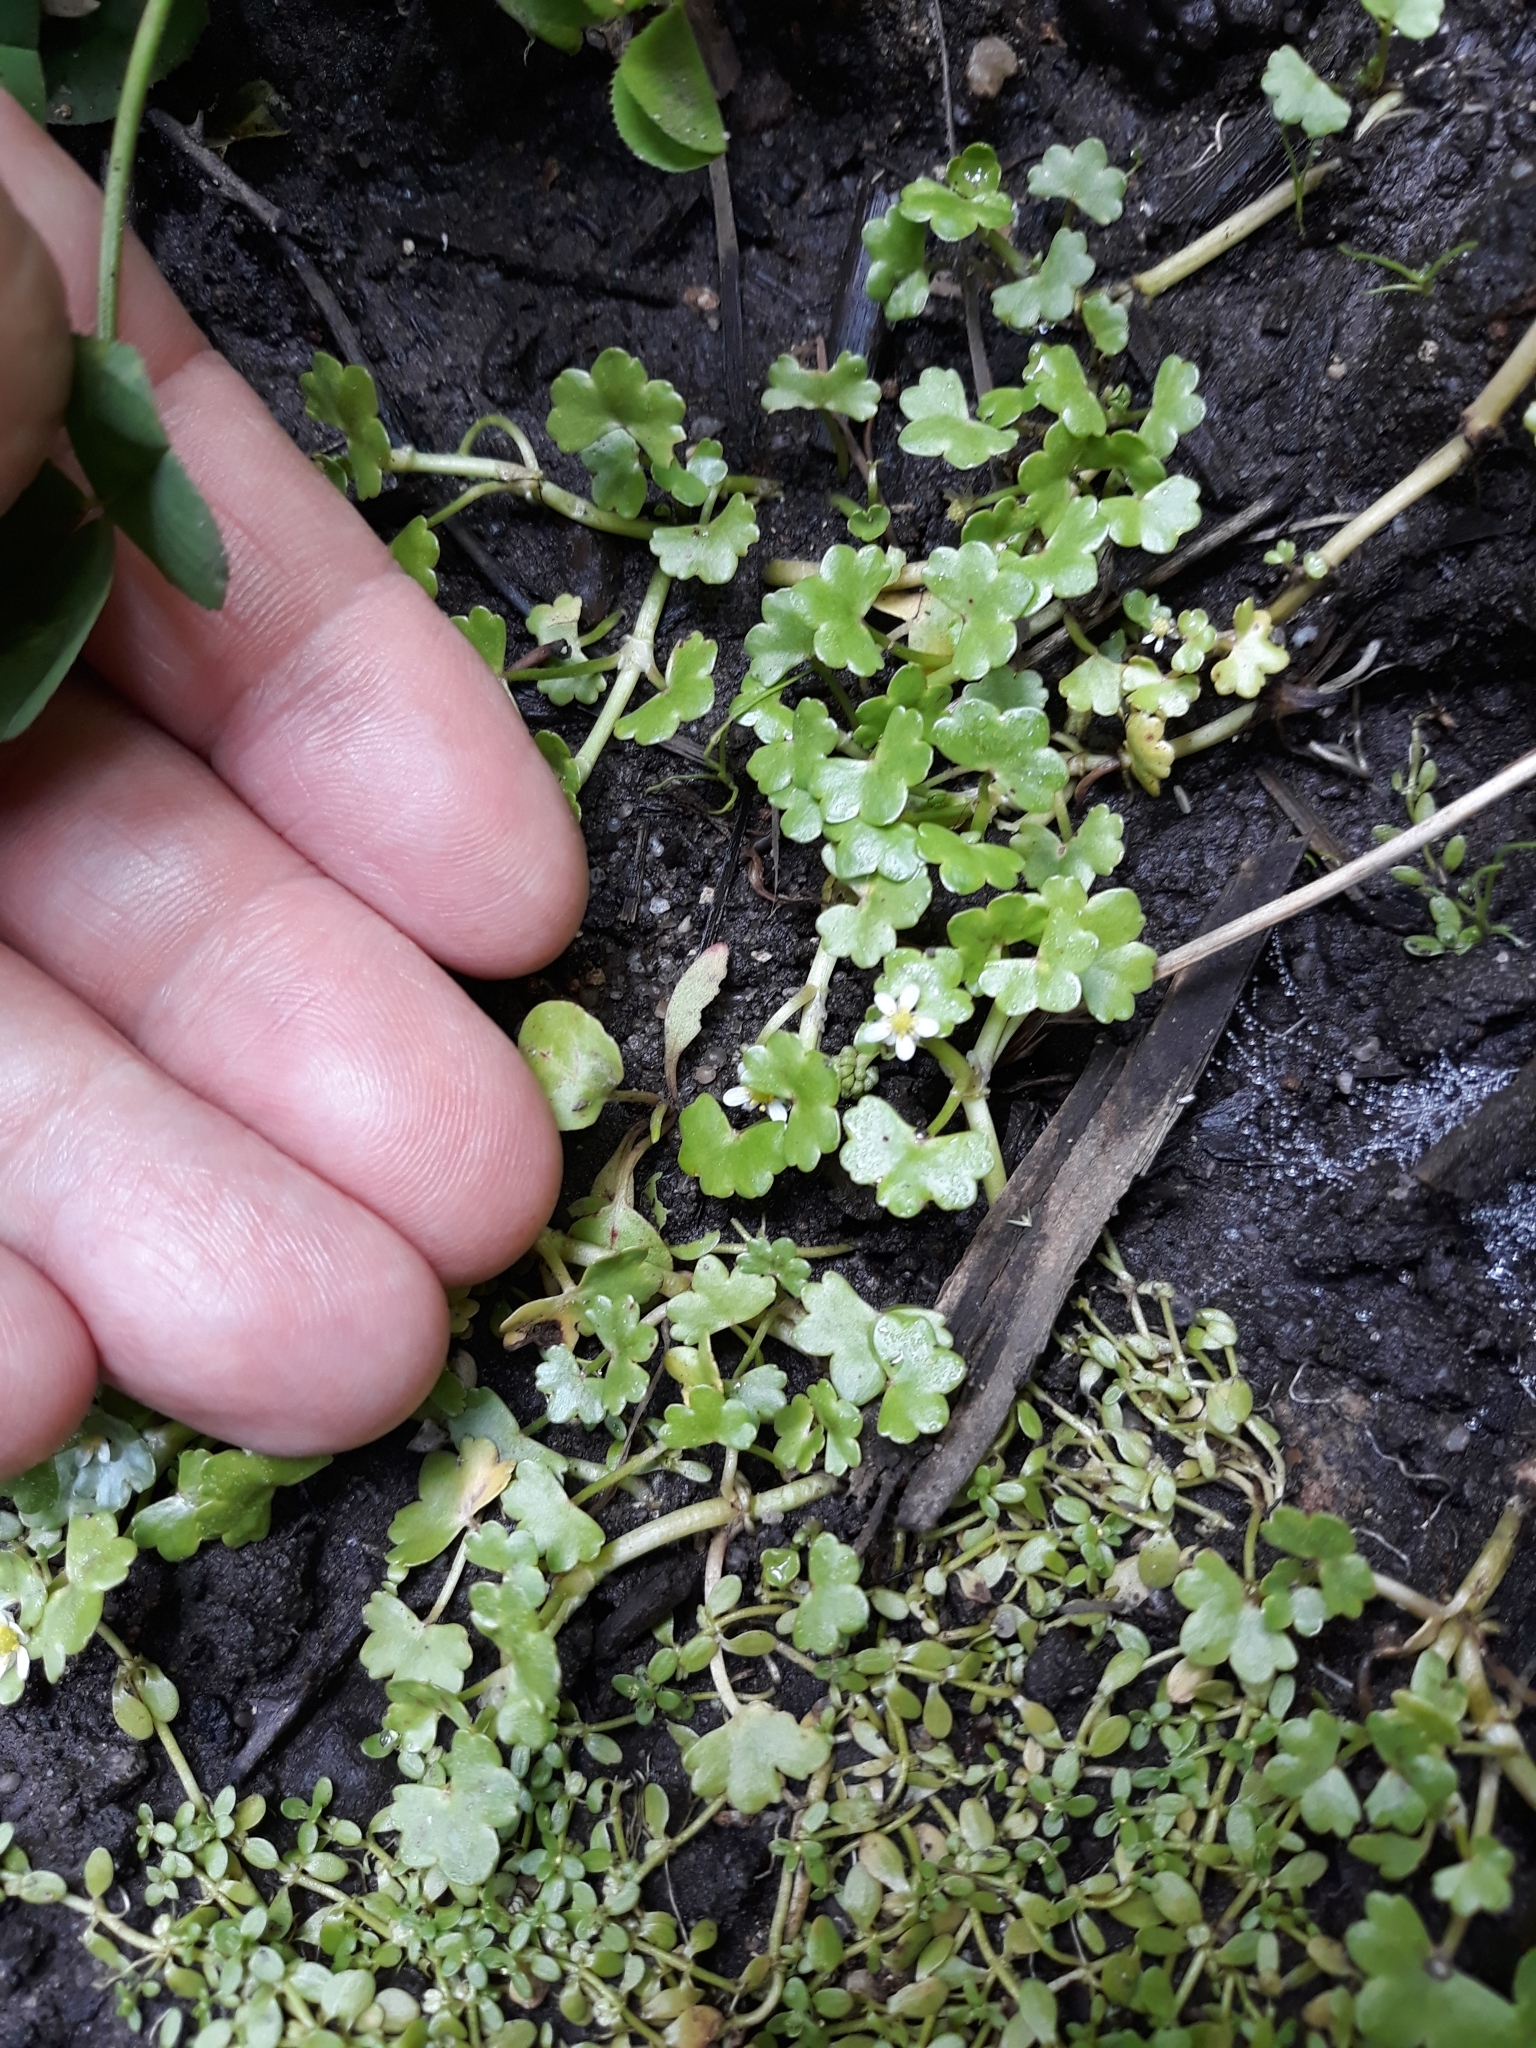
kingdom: Plantae
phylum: Tracheophyta
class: Magnoliopsida
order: Ranunculales
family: Ranunculaceae
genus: Ranunculus
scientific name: Ranunculus hederaceus
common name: Ivy-leaved crowfoot
